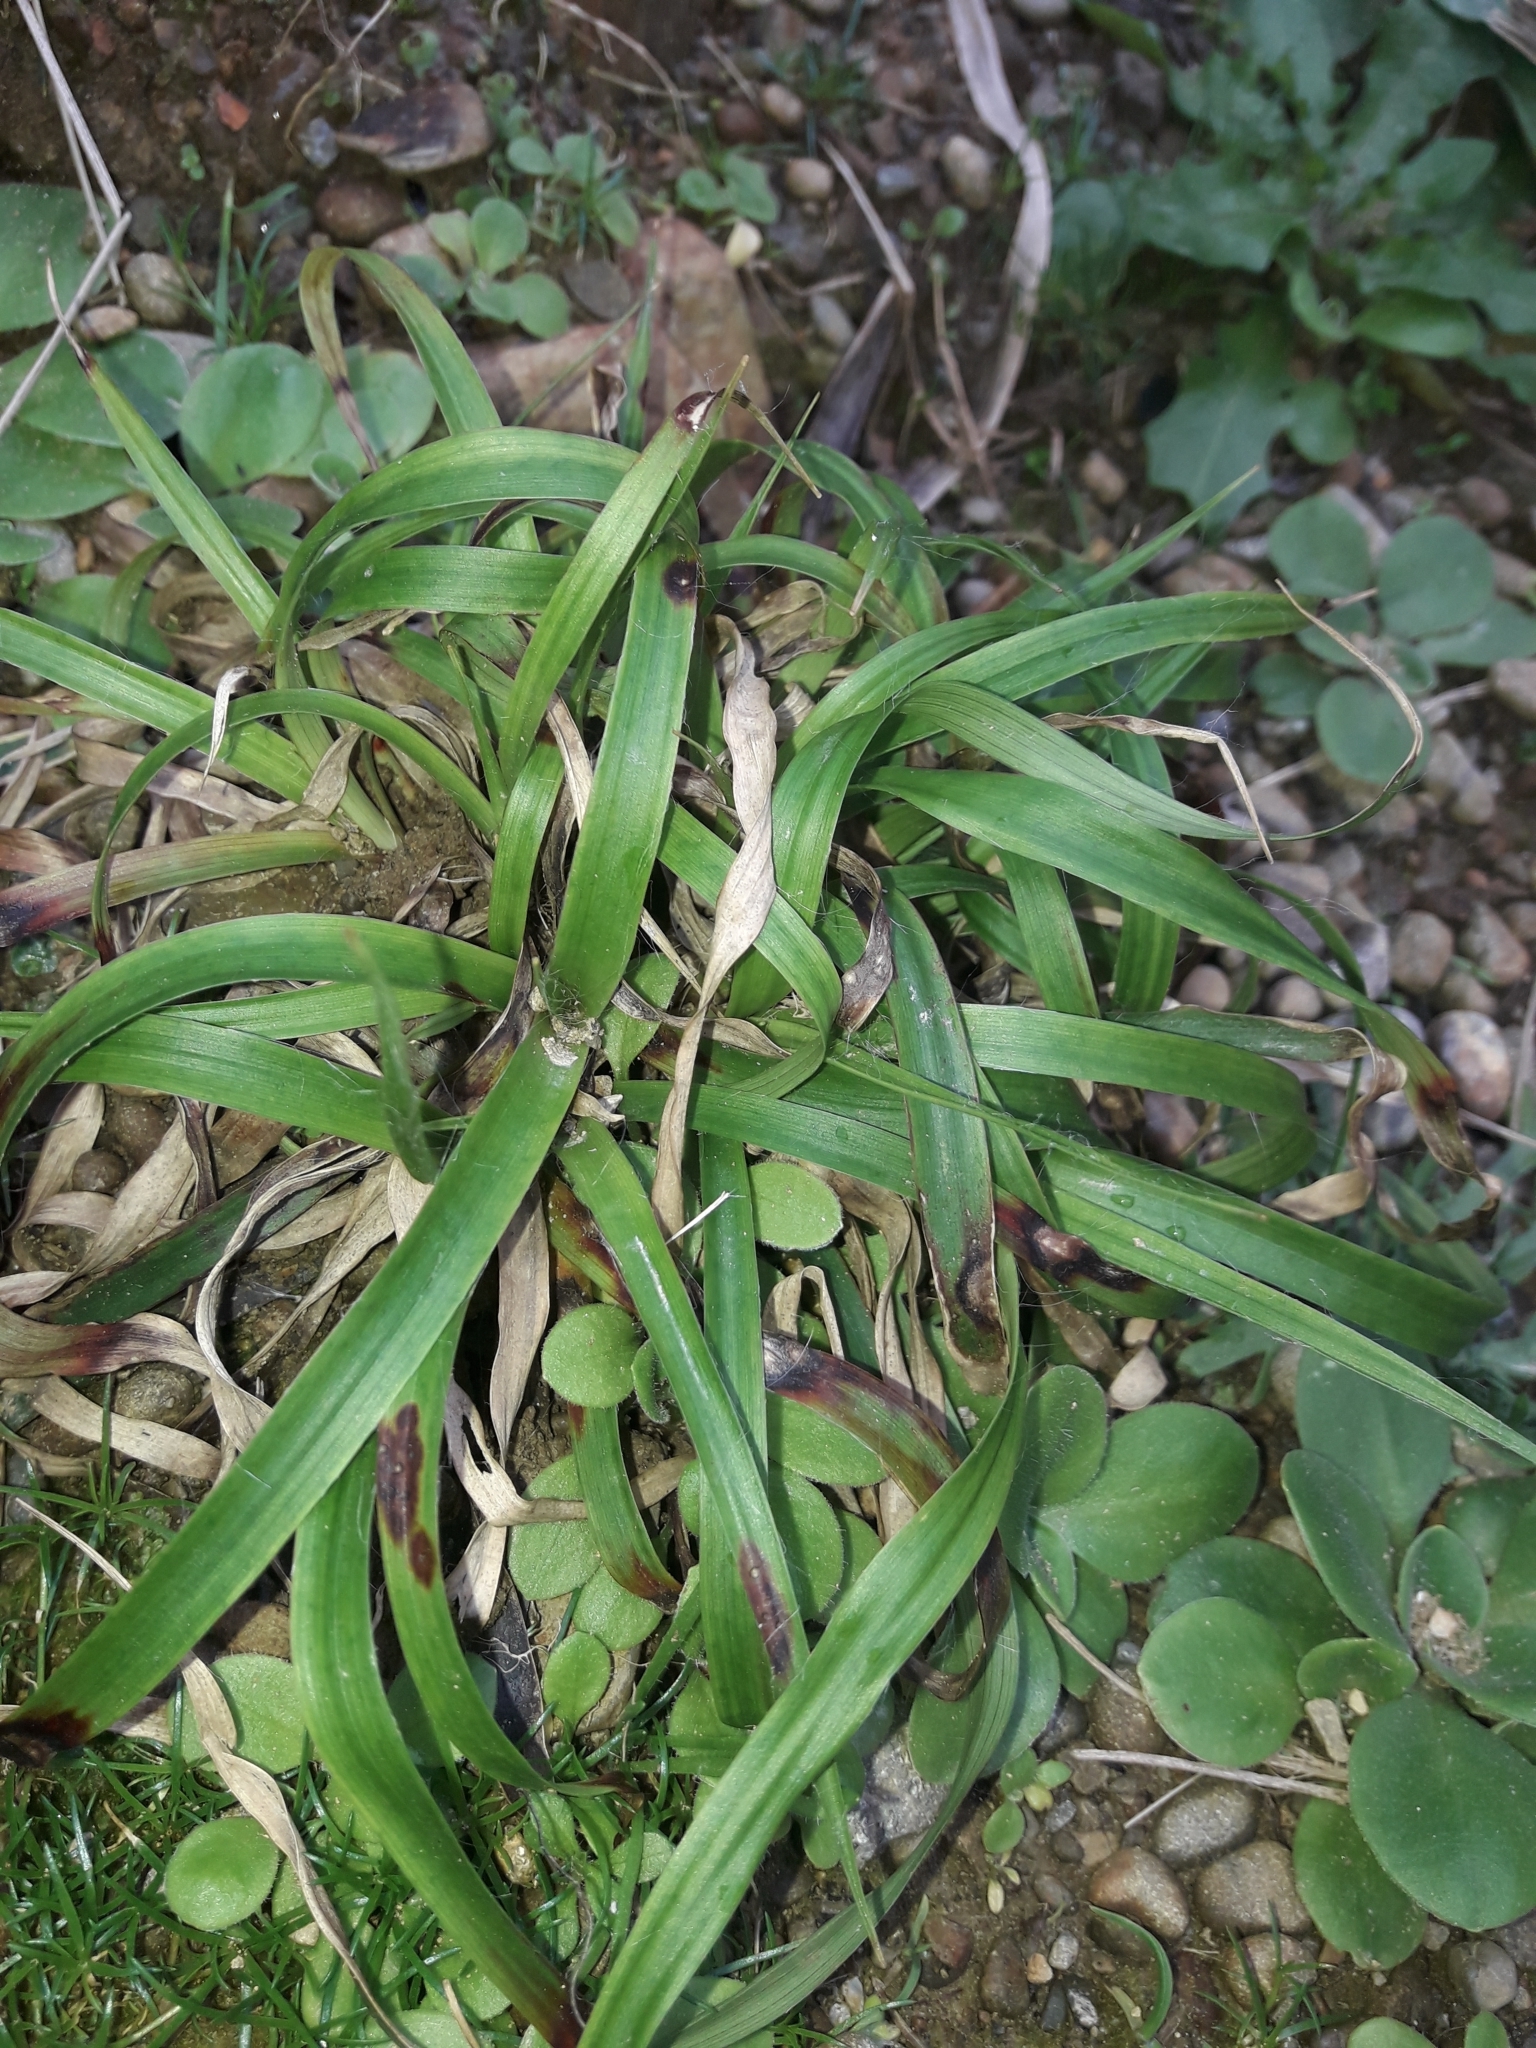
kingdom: Plantae
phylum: Tracheophyta
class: Liliopsida
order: Poales
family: Juncaceae
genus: Luzula
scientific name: Luzula banksiana
